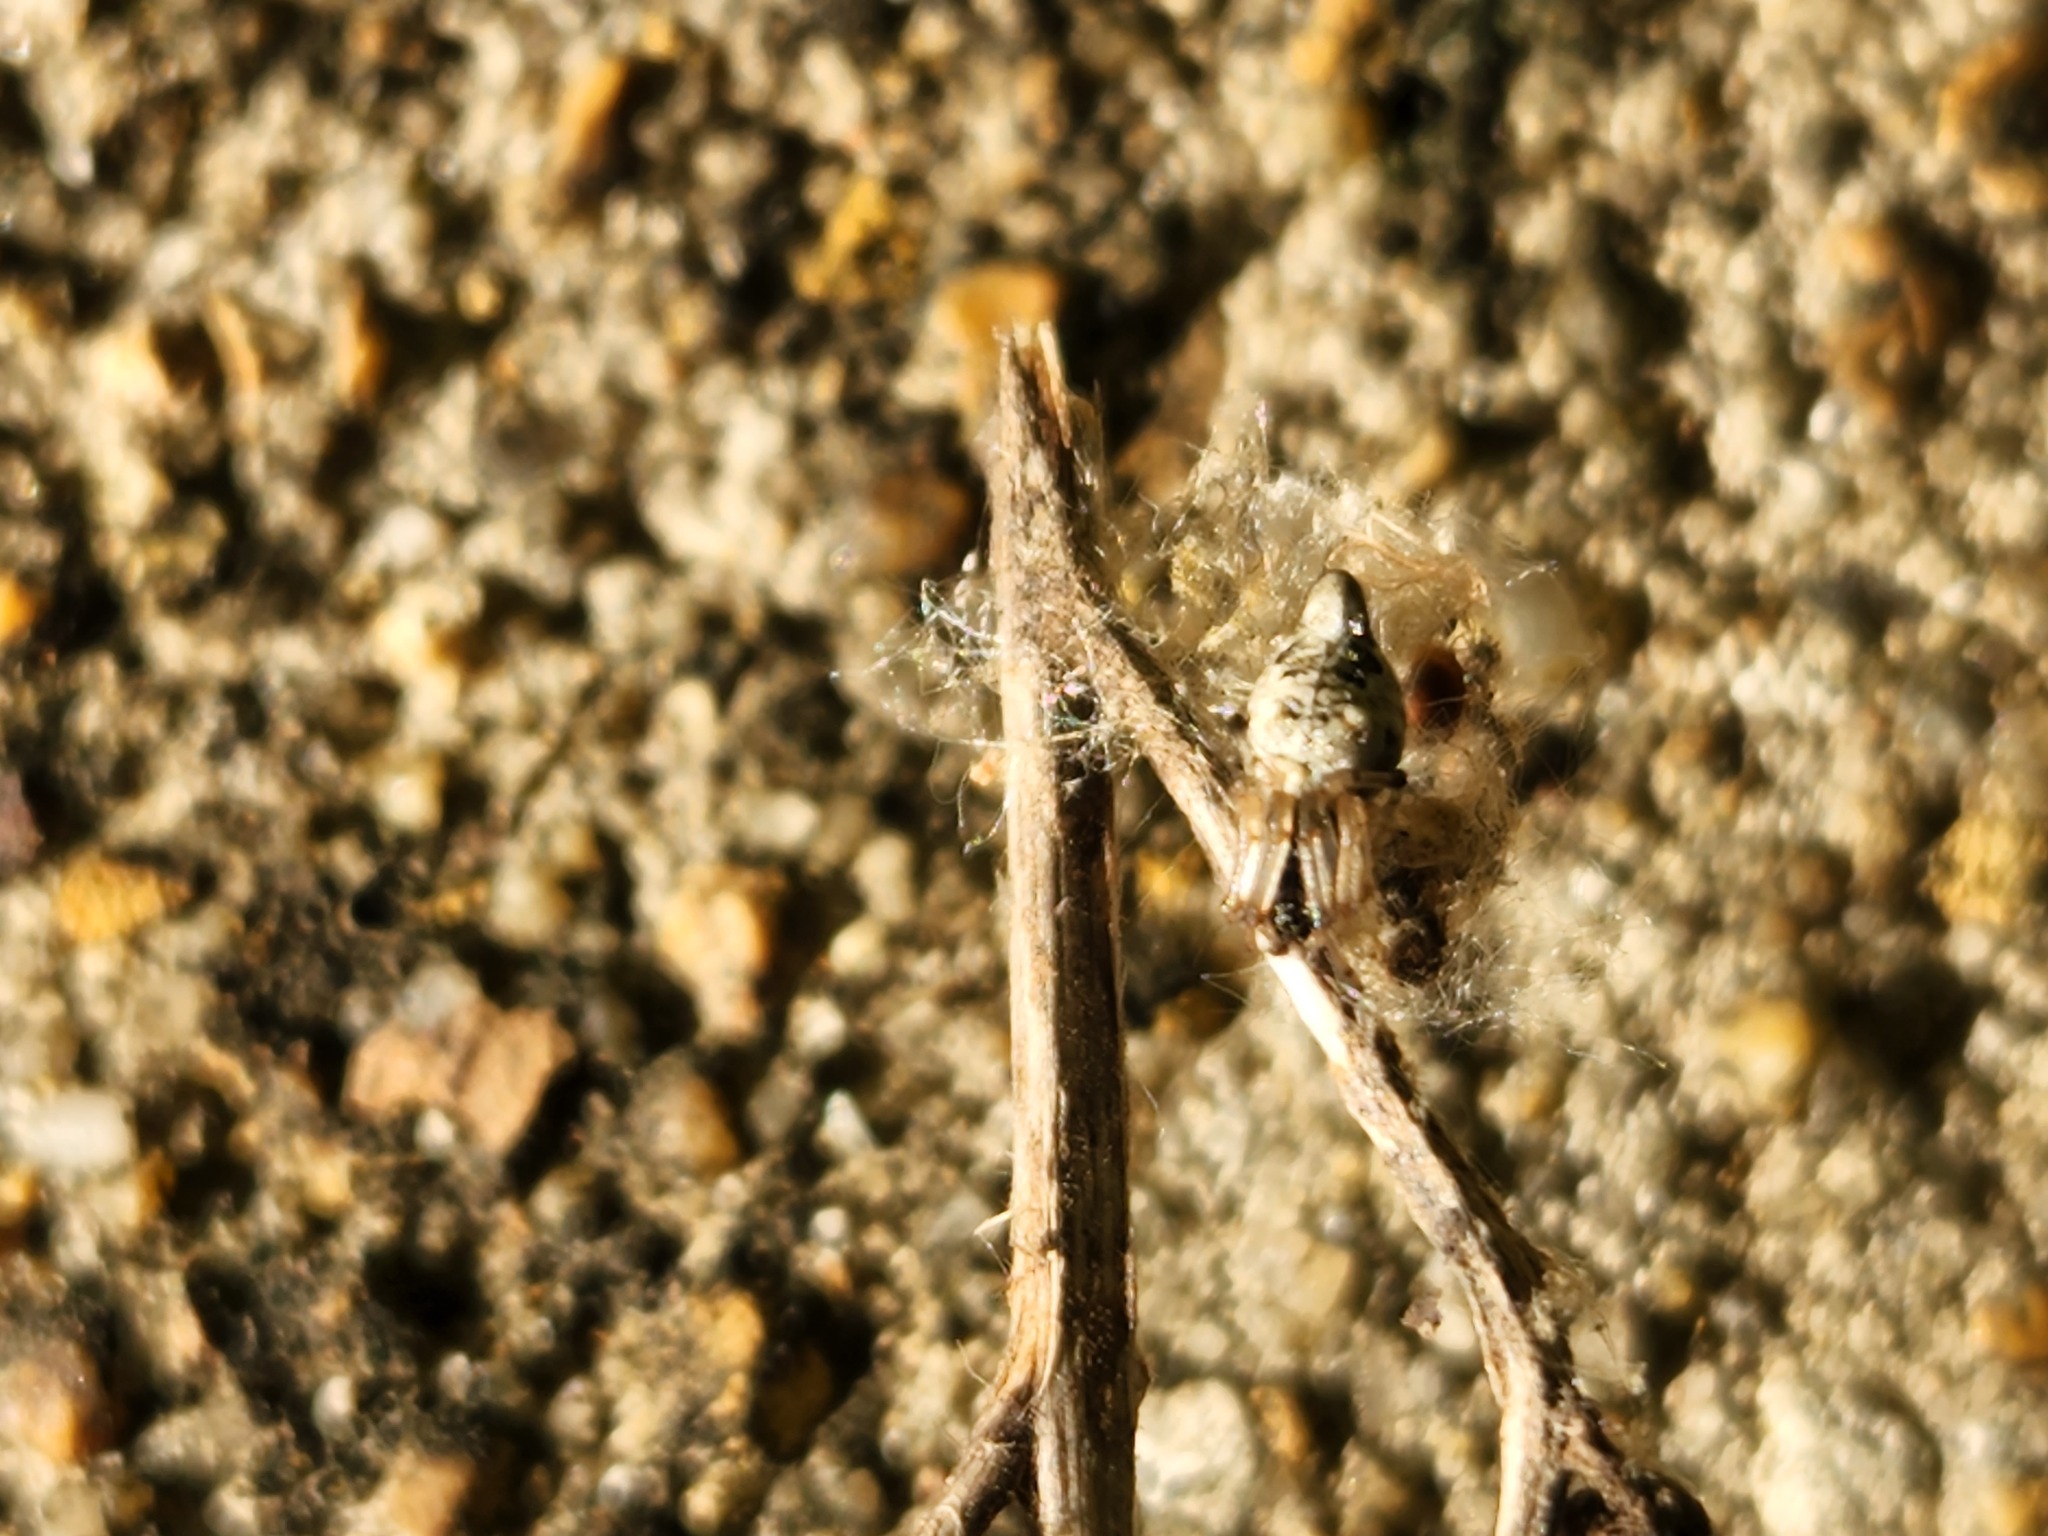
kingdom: Animalia
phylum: Arthropoda
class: Arachnida
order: Araneae
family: Araneidae
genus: Cyclosa
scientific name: Cyclosa turbinata
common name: Orb weavers
